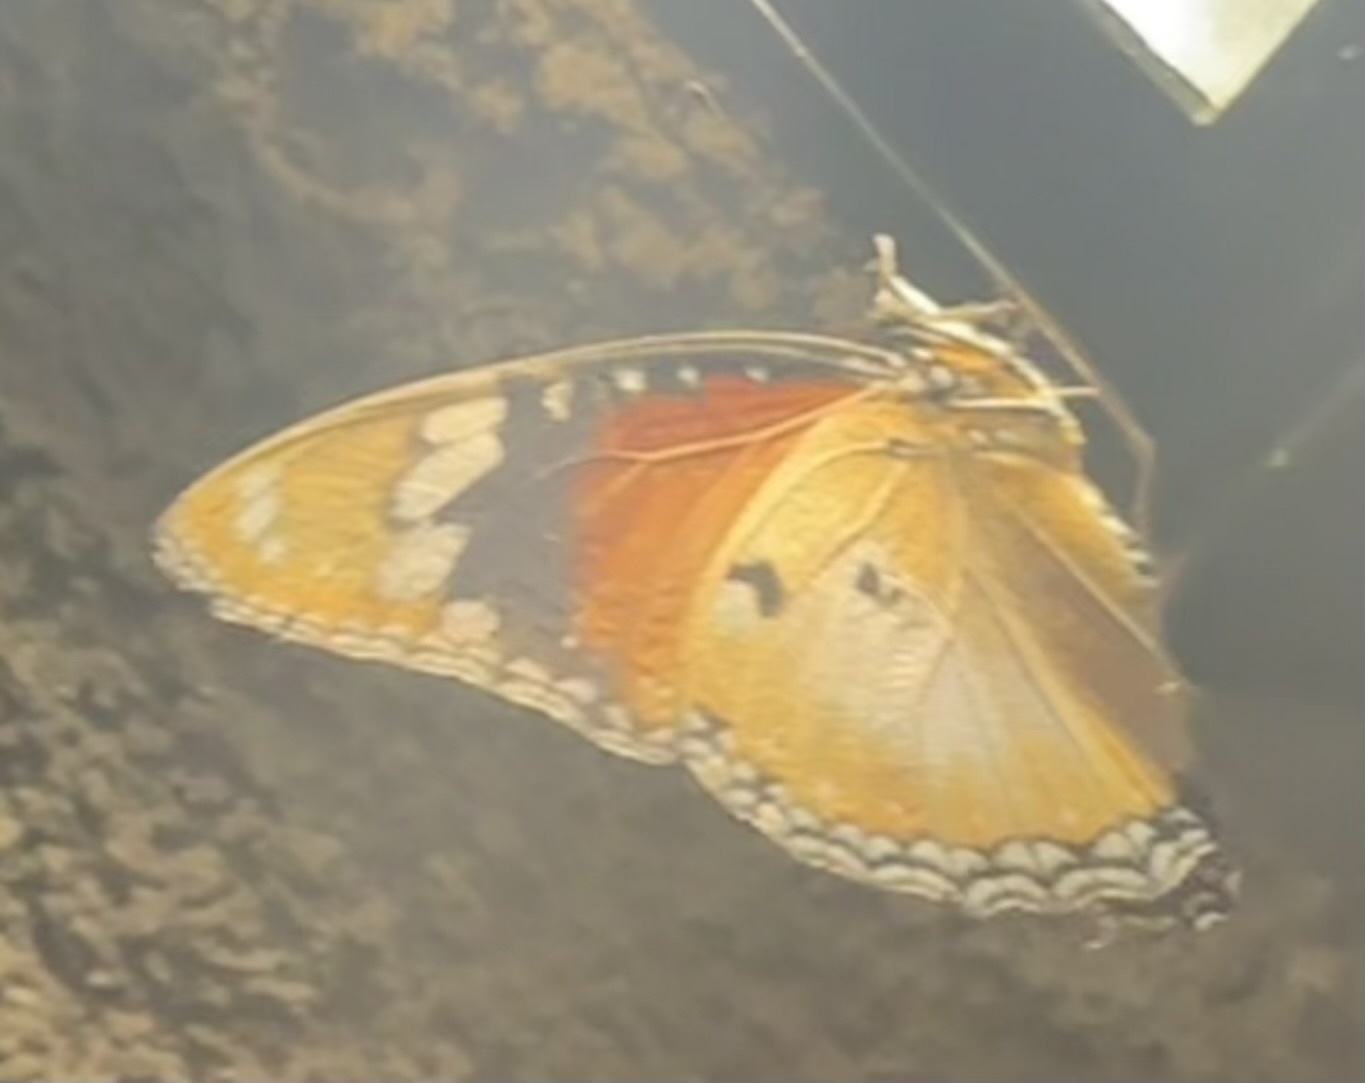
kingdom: Animalia
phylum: Arthropoda
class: Insecta
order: Lepidoptera
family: Nymphalidae
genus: Hypolimnas
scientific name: Hypolimnas misippus
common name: False plain tiger
